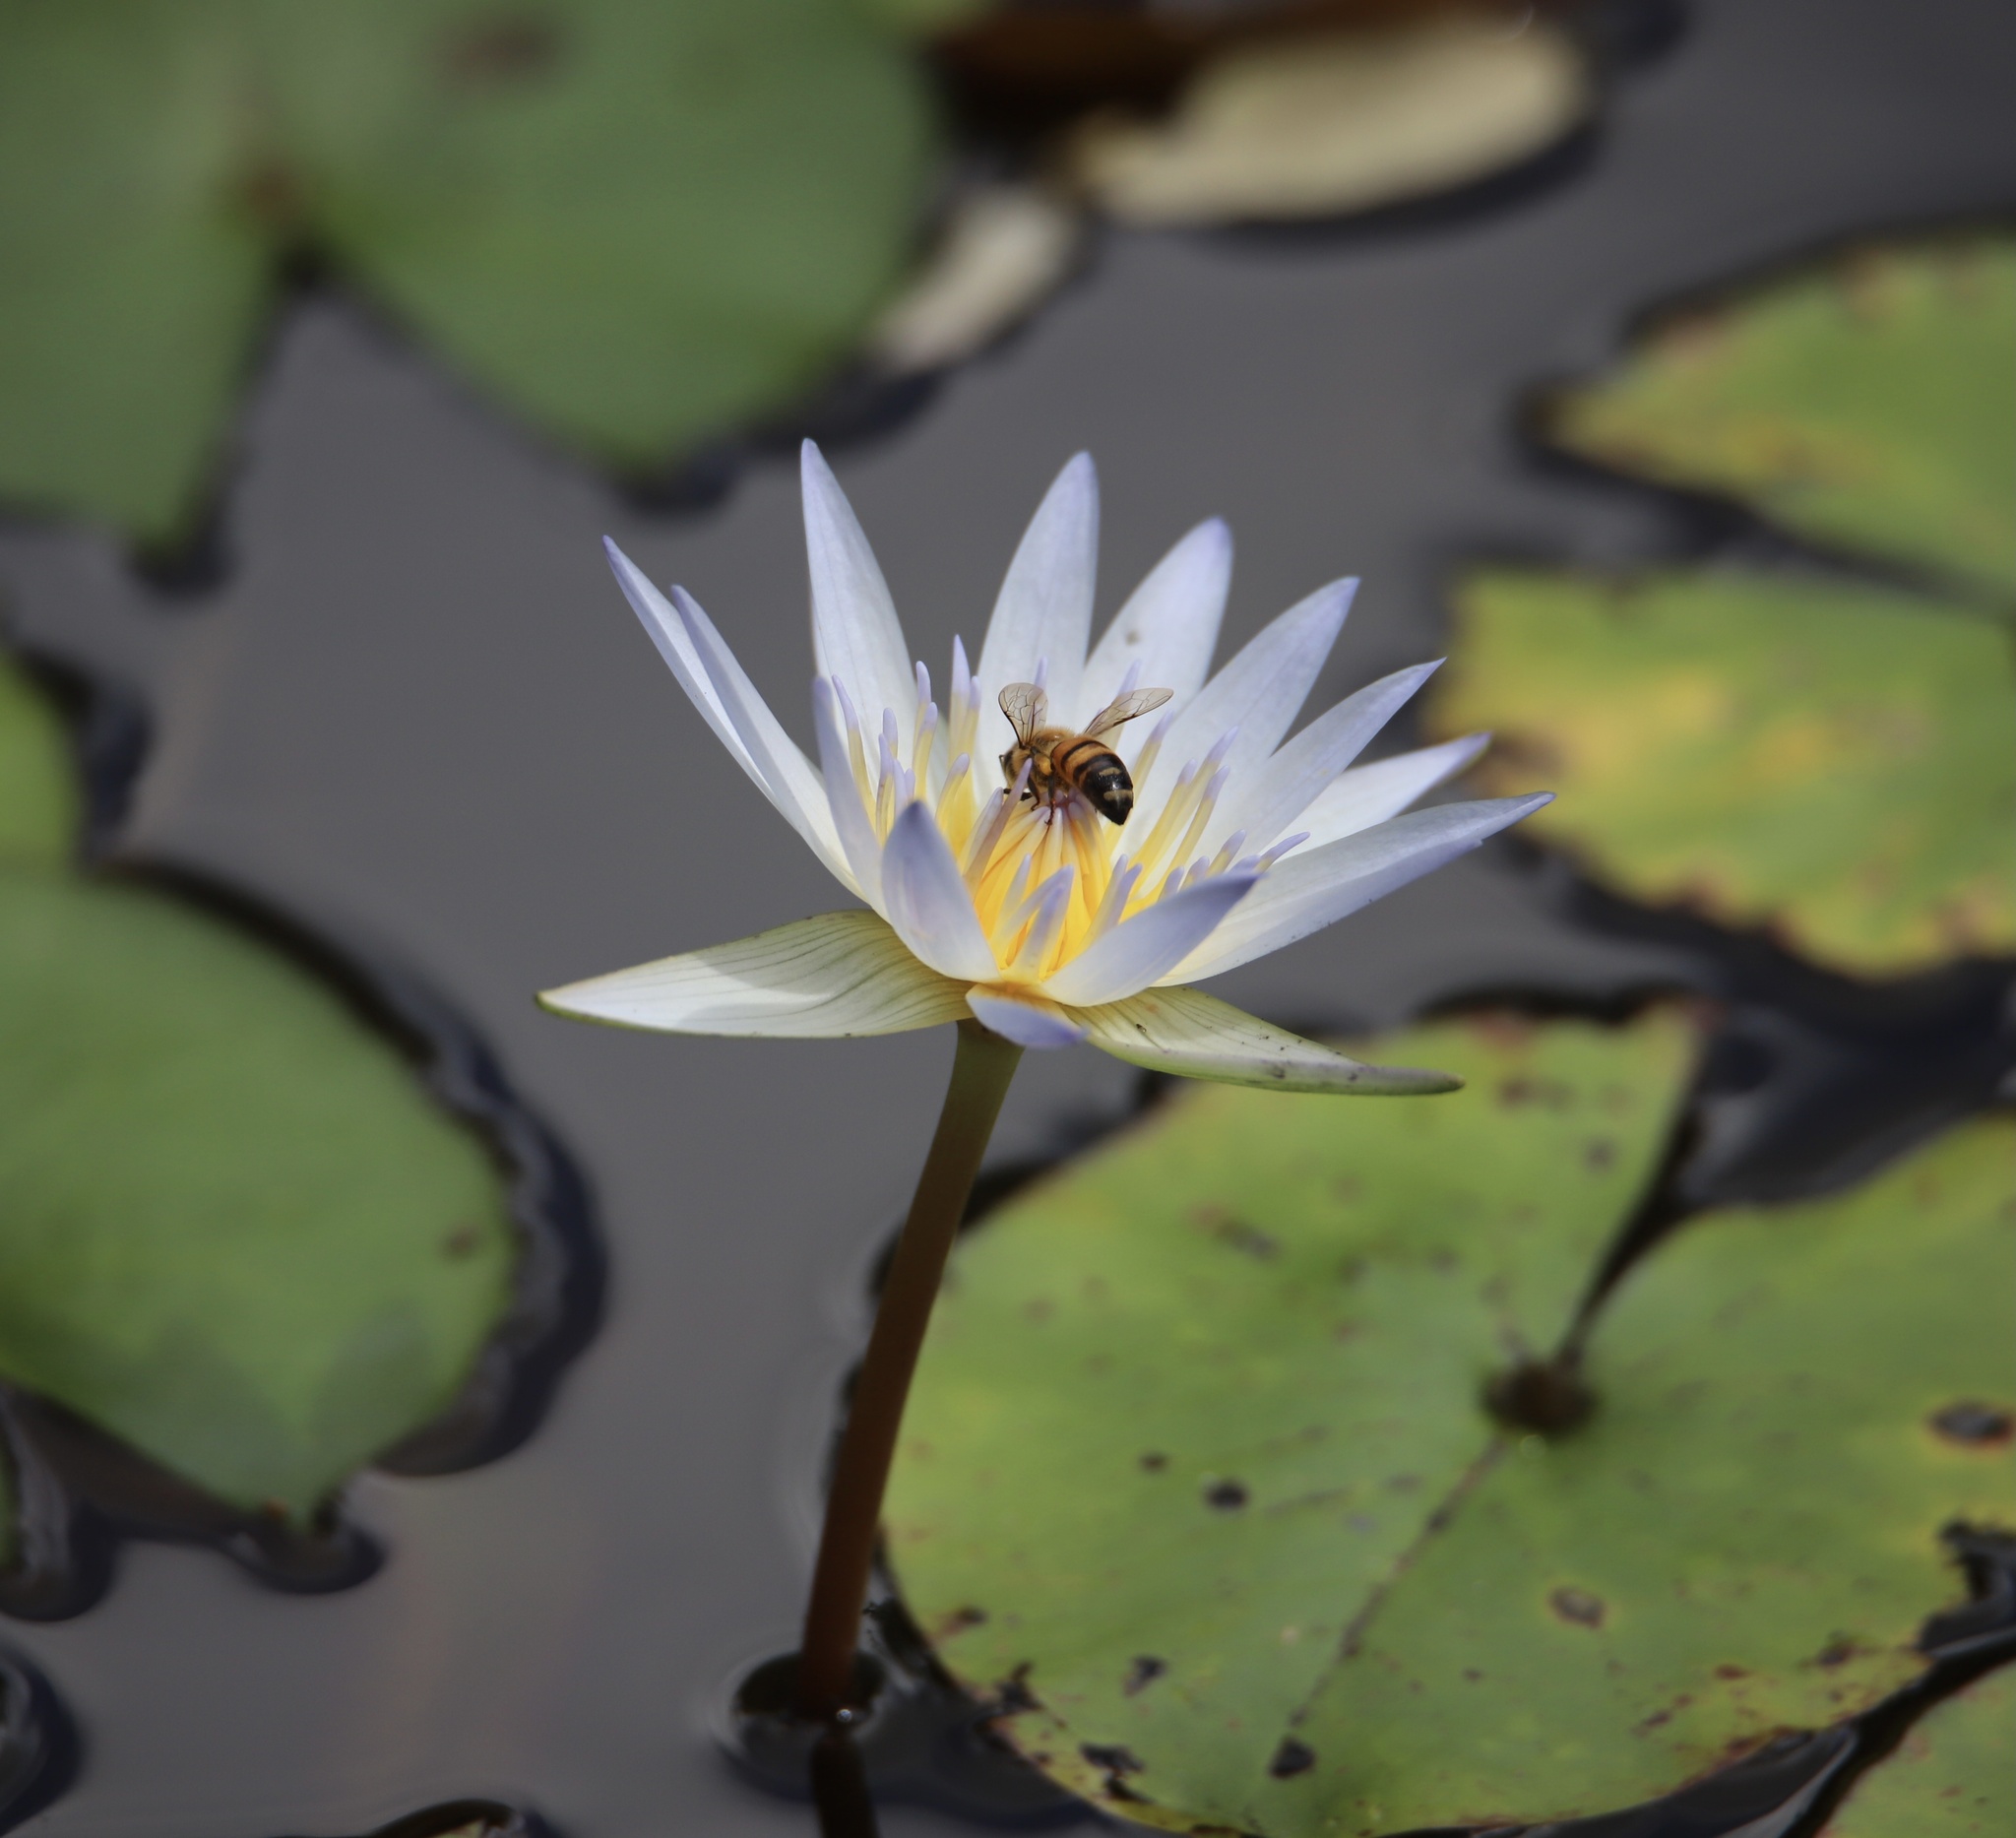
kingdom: Animalia
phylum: Arthropoda
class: Insecta
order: Hymenoptera
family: Apidae
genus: Apis
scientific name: Apis mellifera
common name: Honey bee
